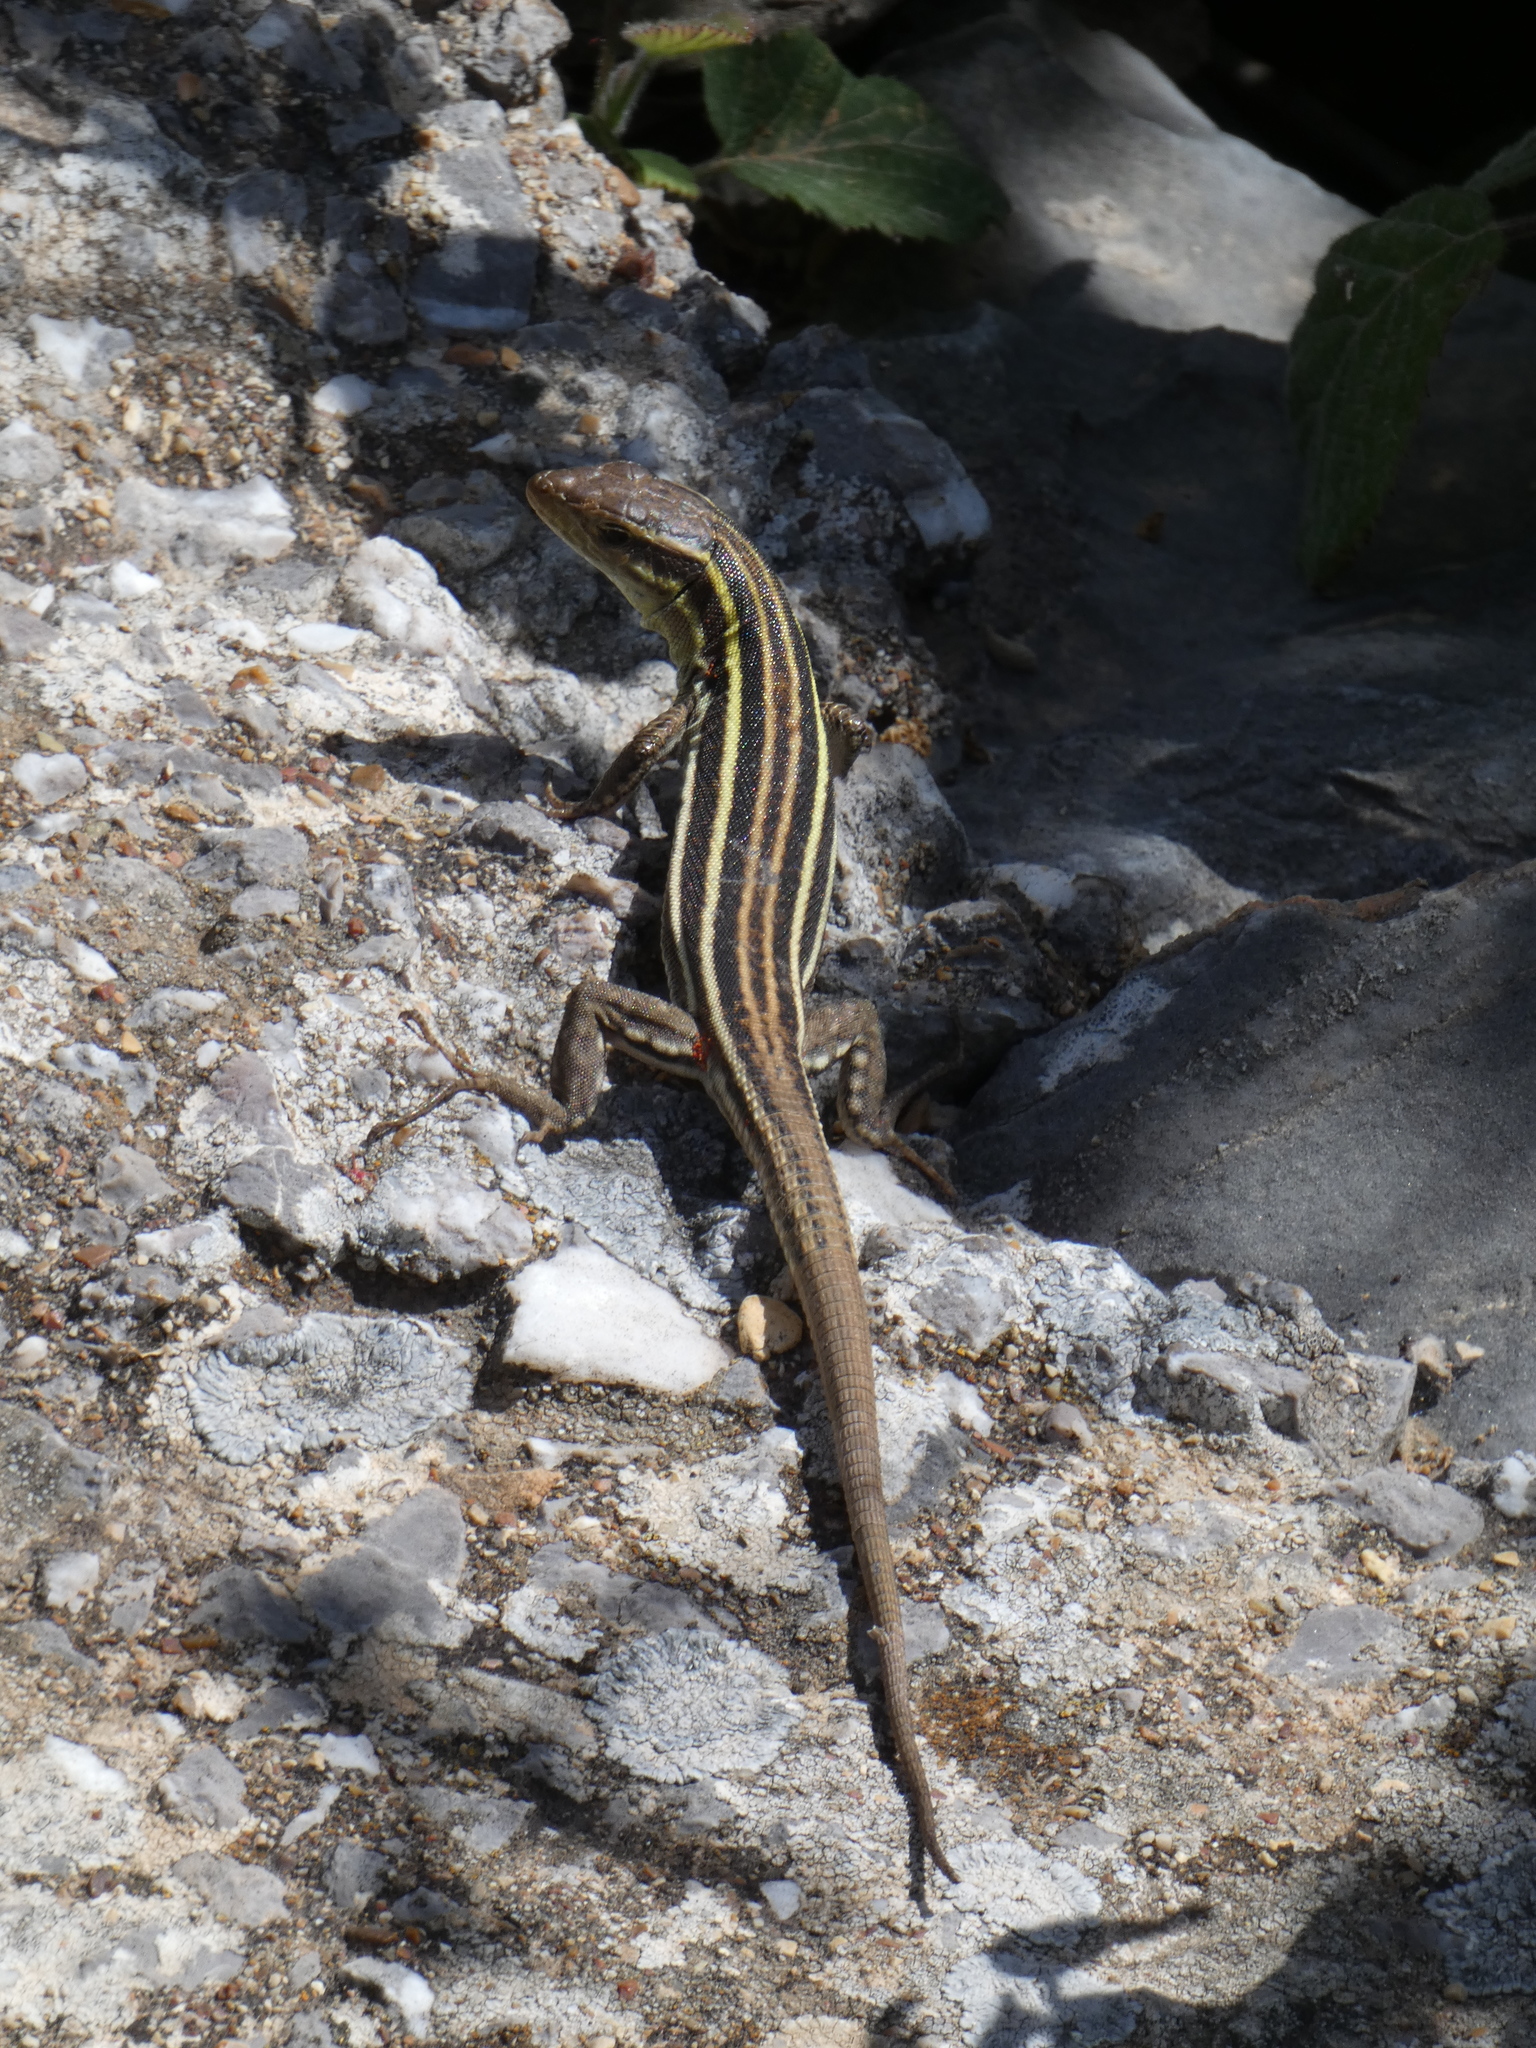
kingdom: Animalia
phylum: Chordata
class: Squamata
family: Lacertidae
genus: Podarcis
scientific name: Podarcis peloponnesiacus
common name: Peloponnese wall lizard
